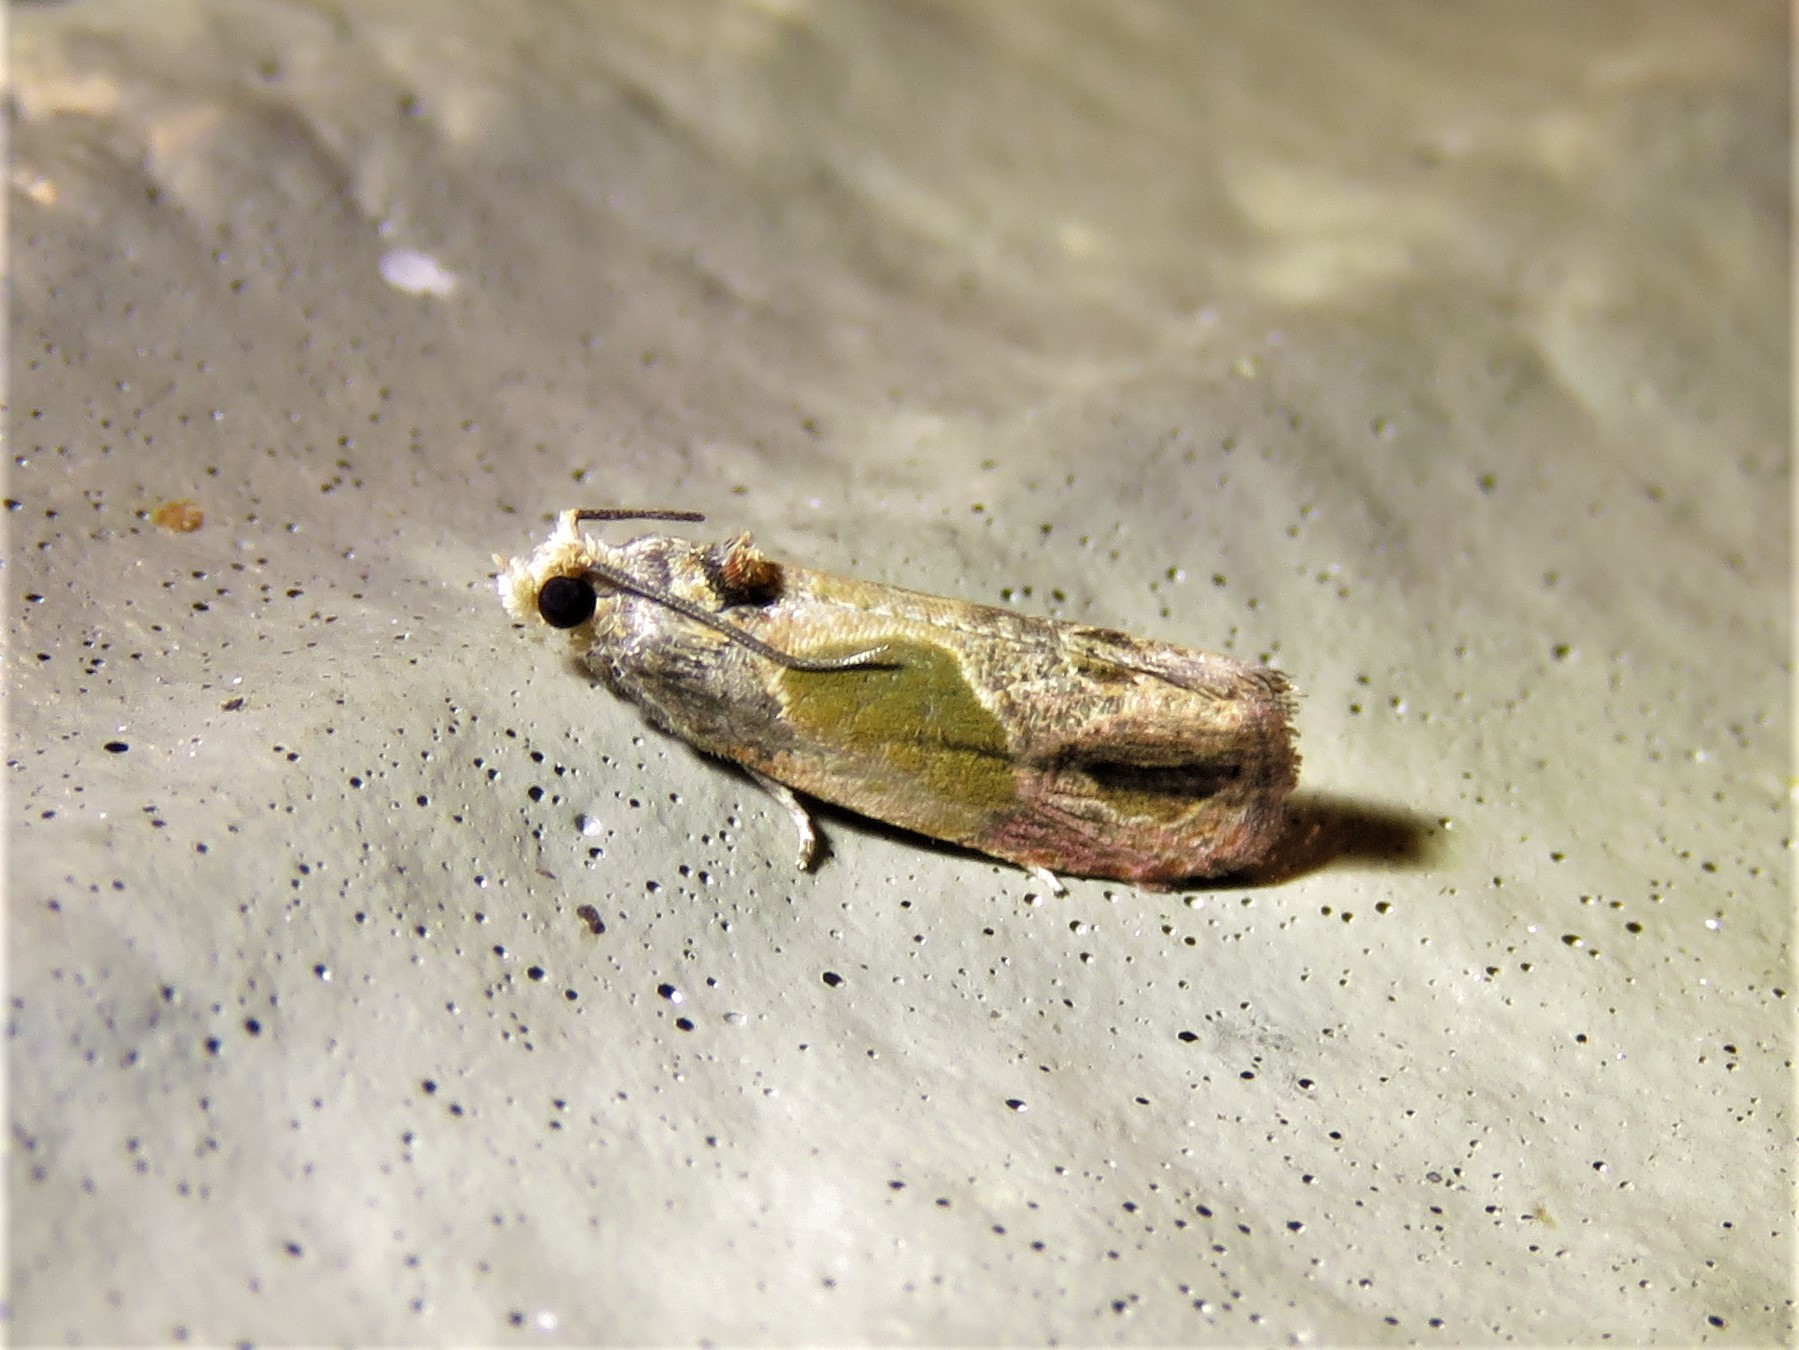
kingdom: Animalia
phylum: Arthropoda
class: Insecta
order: Lepidoptera
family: Tortricidae
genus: Eumarozia
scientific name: Eumarozia malachitana
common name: Sculptured moth
